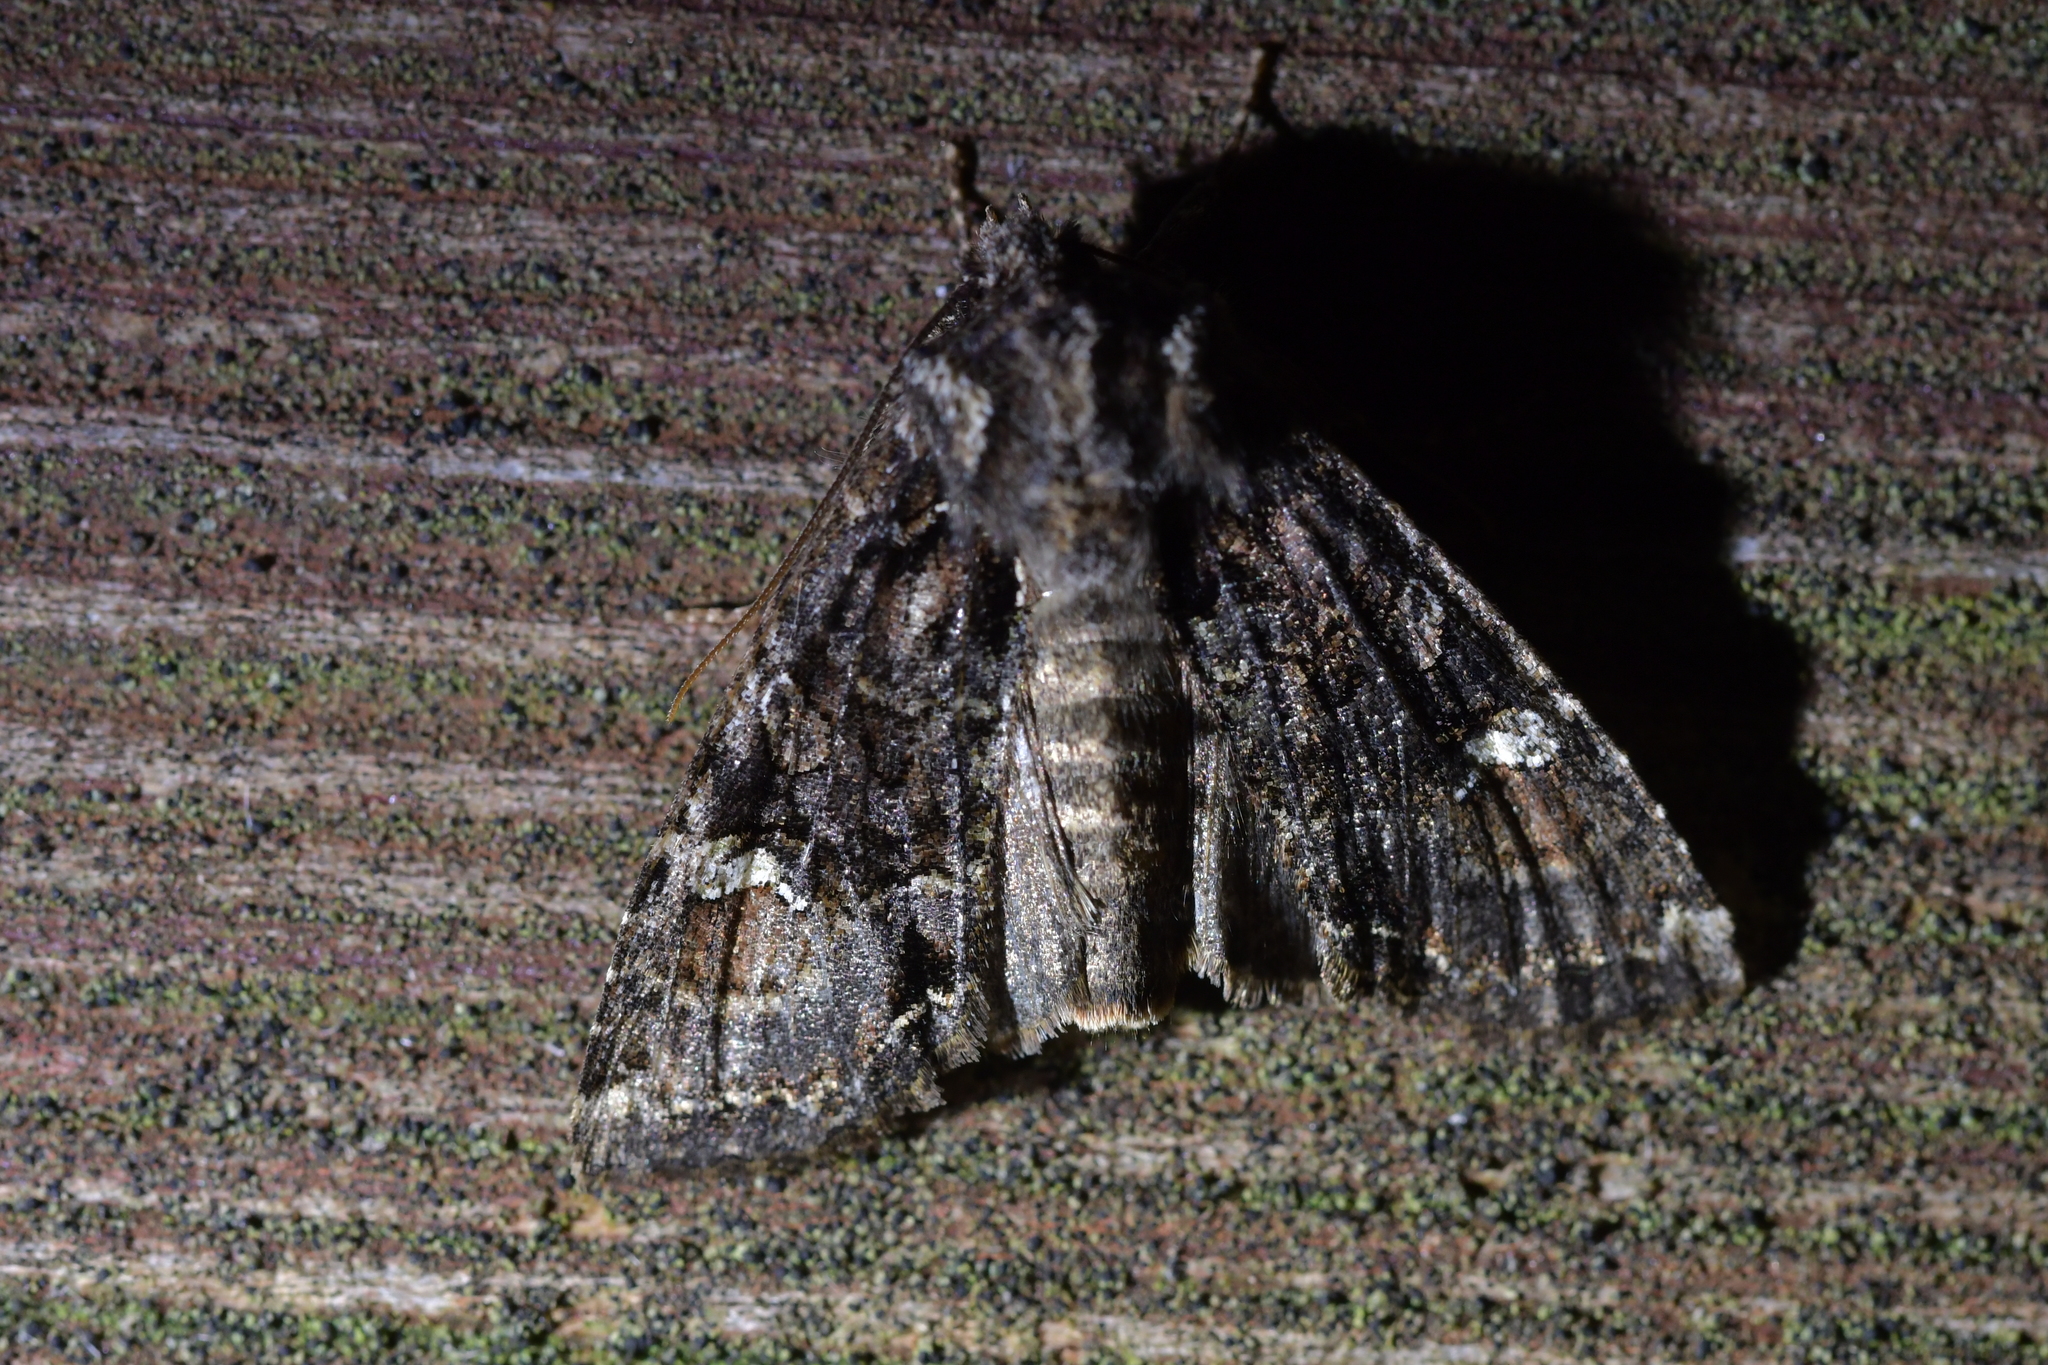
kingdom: Animalia
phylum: Arthropoda
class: Insecta
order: Lepidoptera
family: Noctuidae
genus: Meterana
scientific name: Meterana
